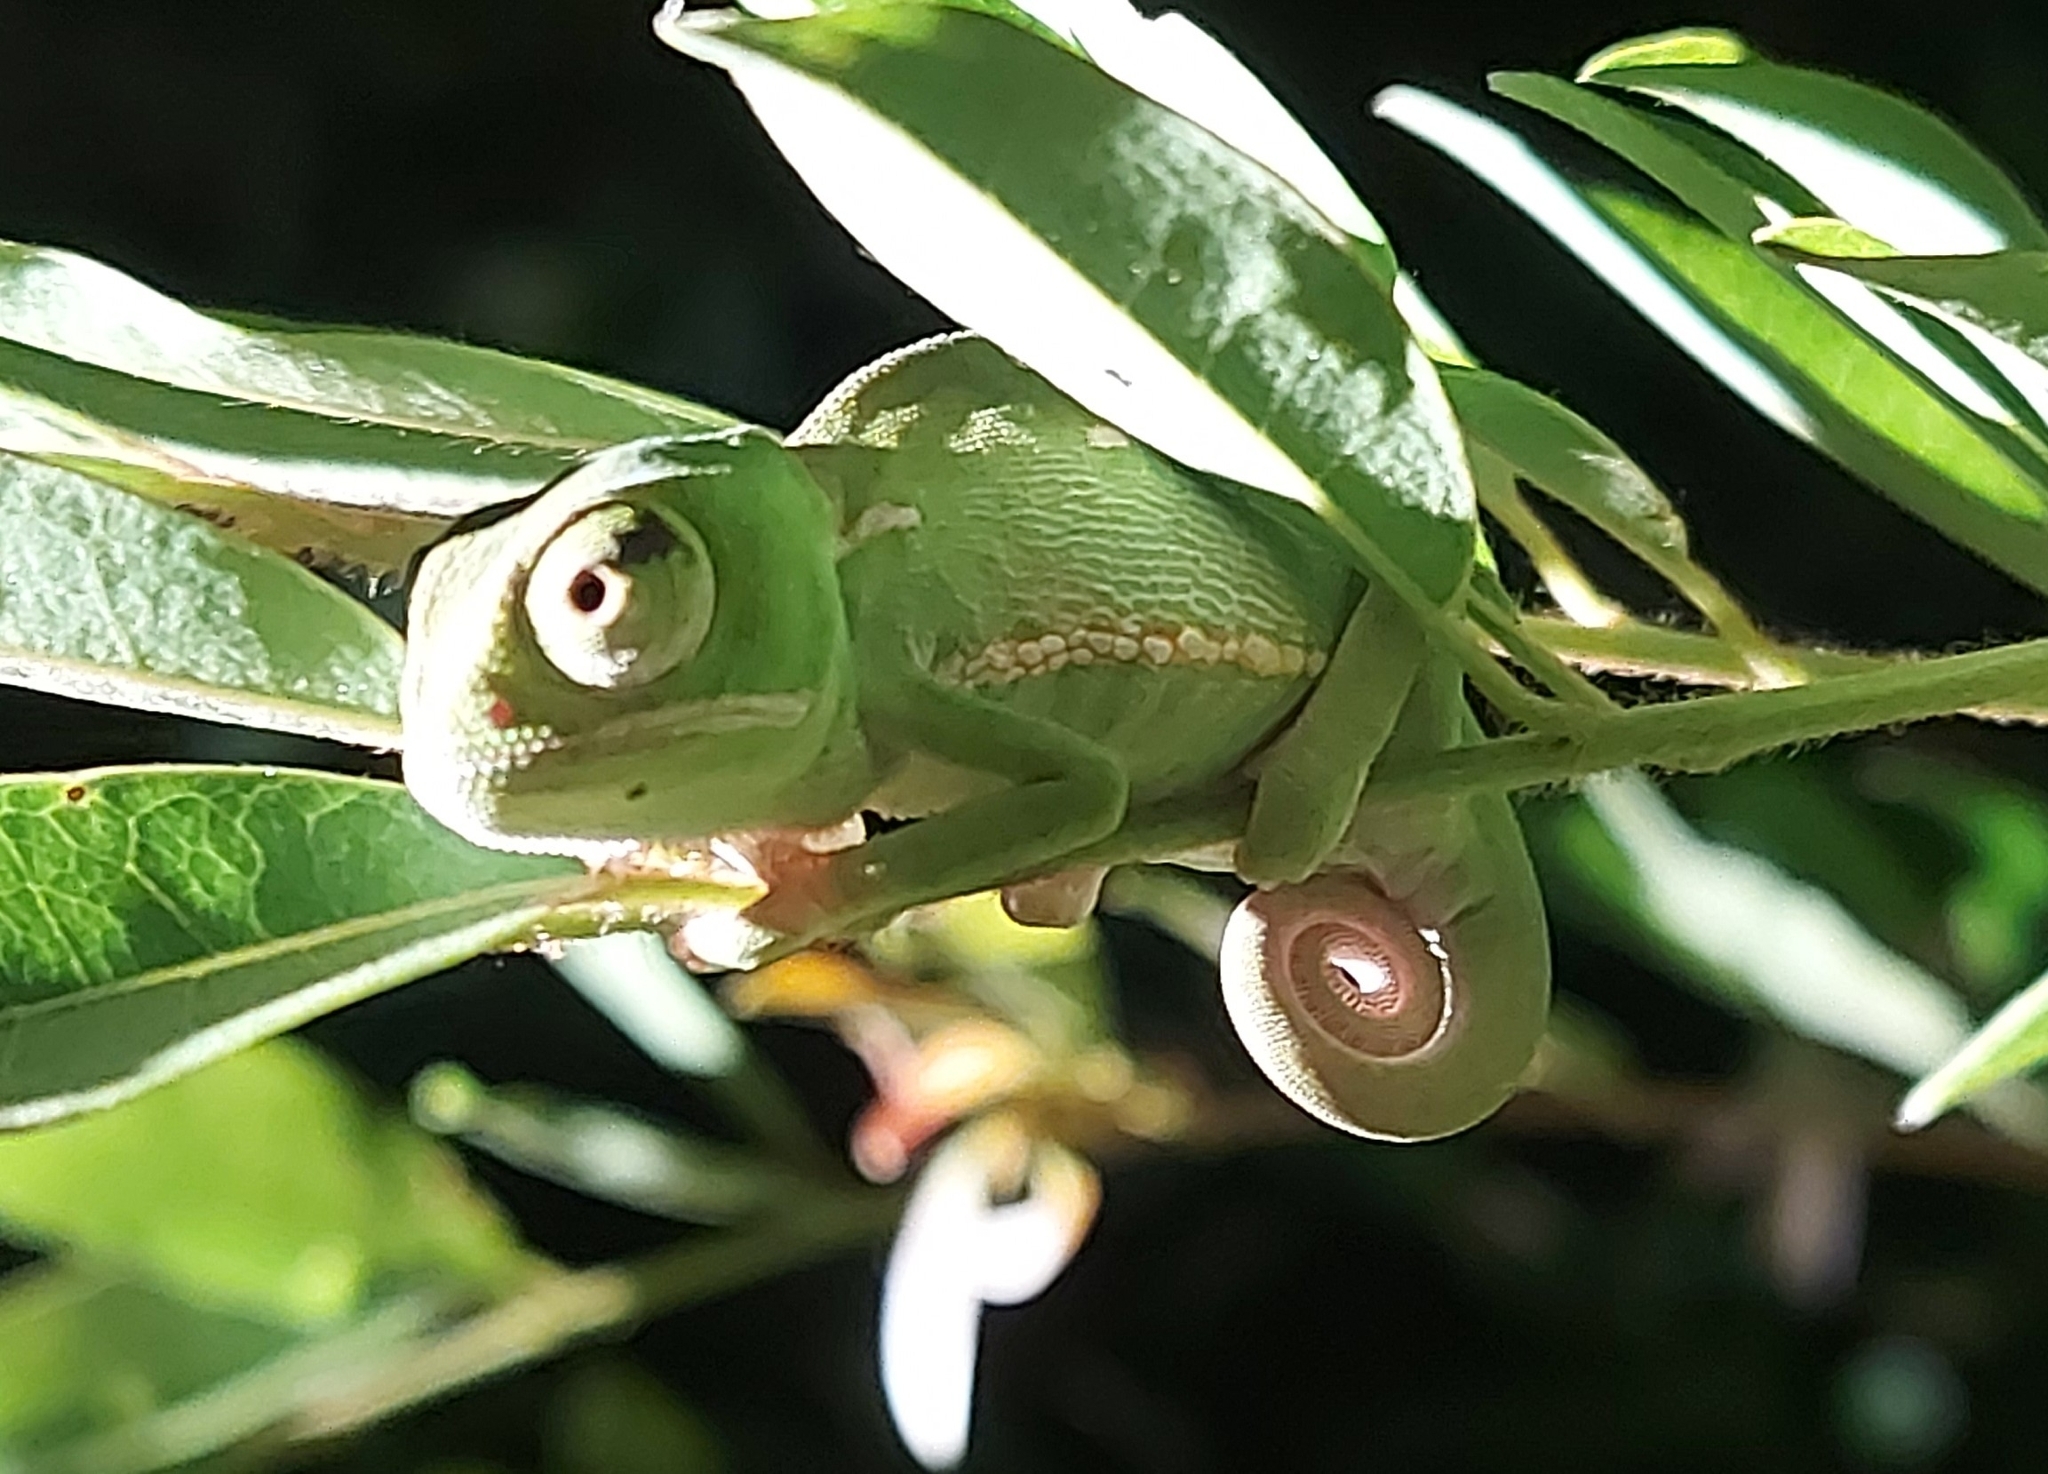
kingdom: Animalia
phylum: Chordata
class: Squamata
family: Chamaeleonidae
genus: Chamaeleo
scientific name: Chamaeleo dilepis
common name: Flapneck chameleon
